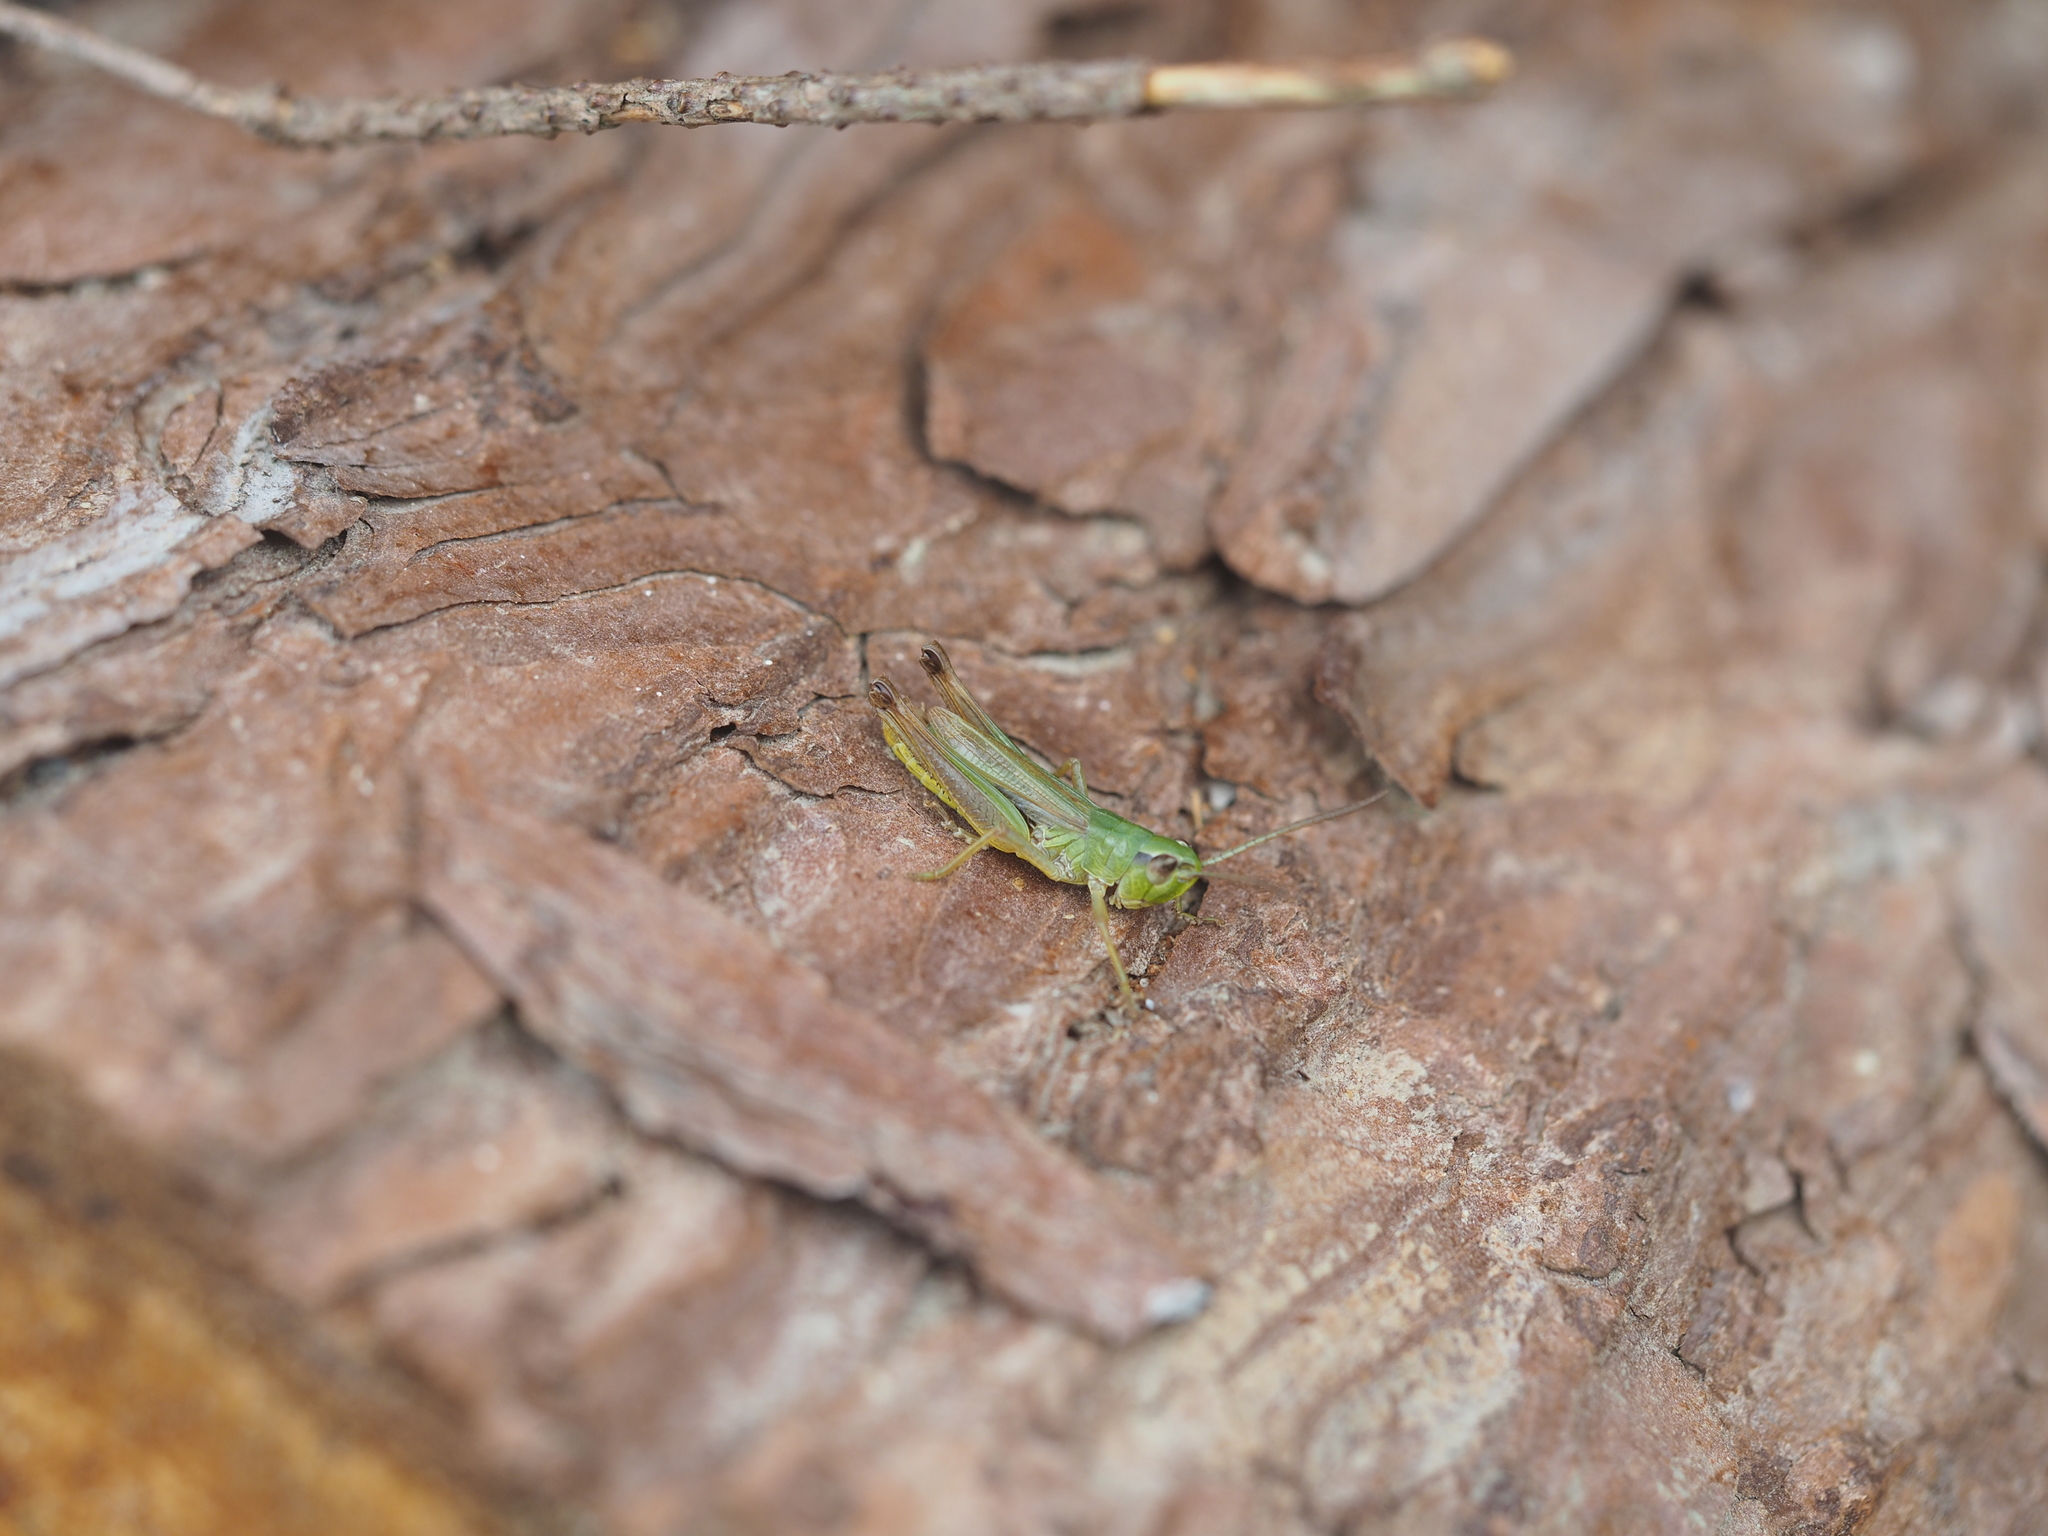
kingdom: Animalia
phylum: Arthropoda
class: Insecta
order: Orthoptera
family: Acrididae
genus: Pseudochorthippus
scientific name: Pseudochorthippus parallelus
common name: Meadow grasshopper
